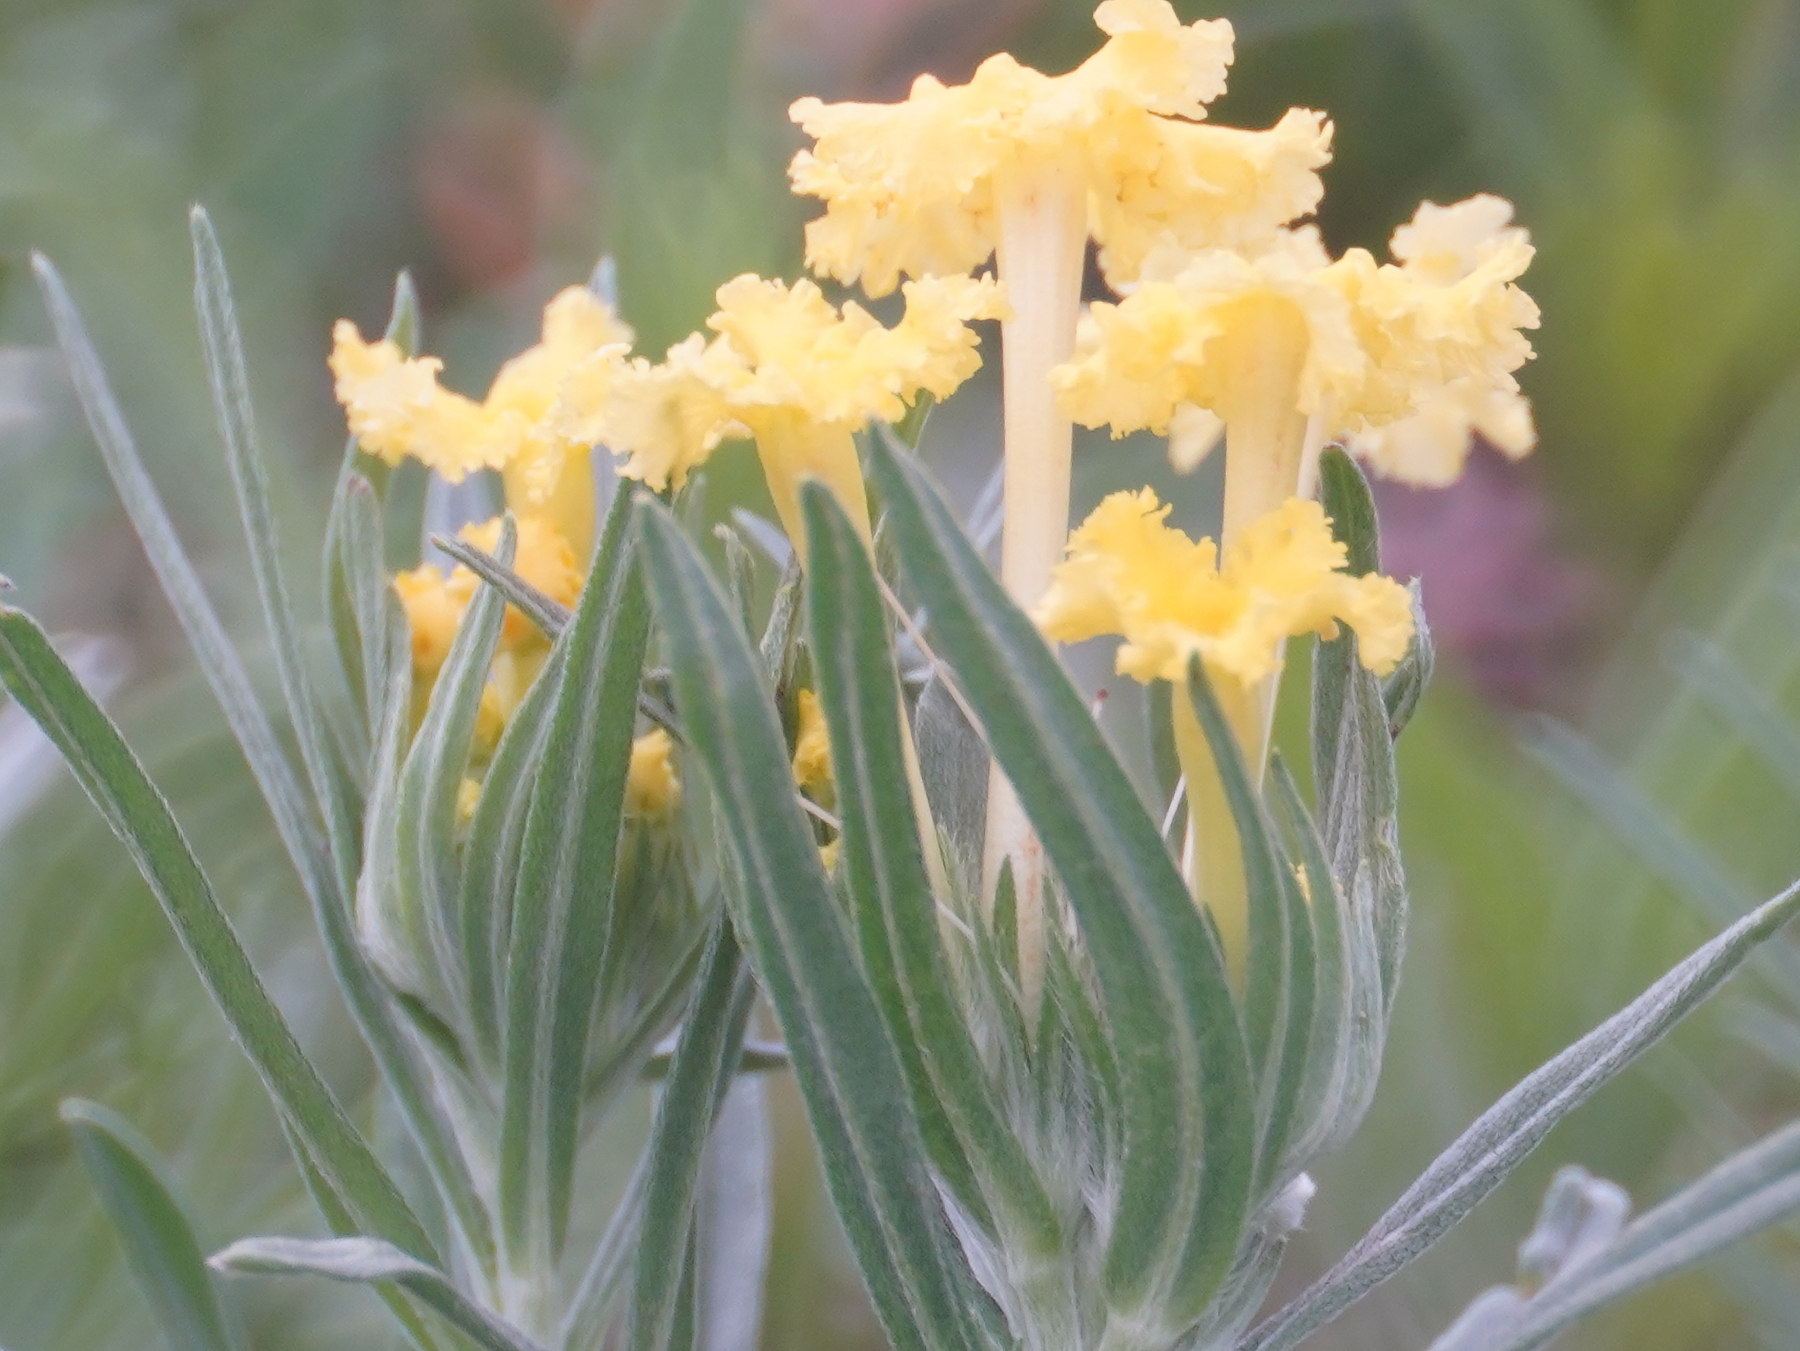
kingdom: Plantae
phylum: Tracheophyta
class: Magnoliopsida
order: Boraginales
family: Boraginaceae
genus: Lithospermum
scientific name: Lithospermum incisum
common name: Fringed gromwell
